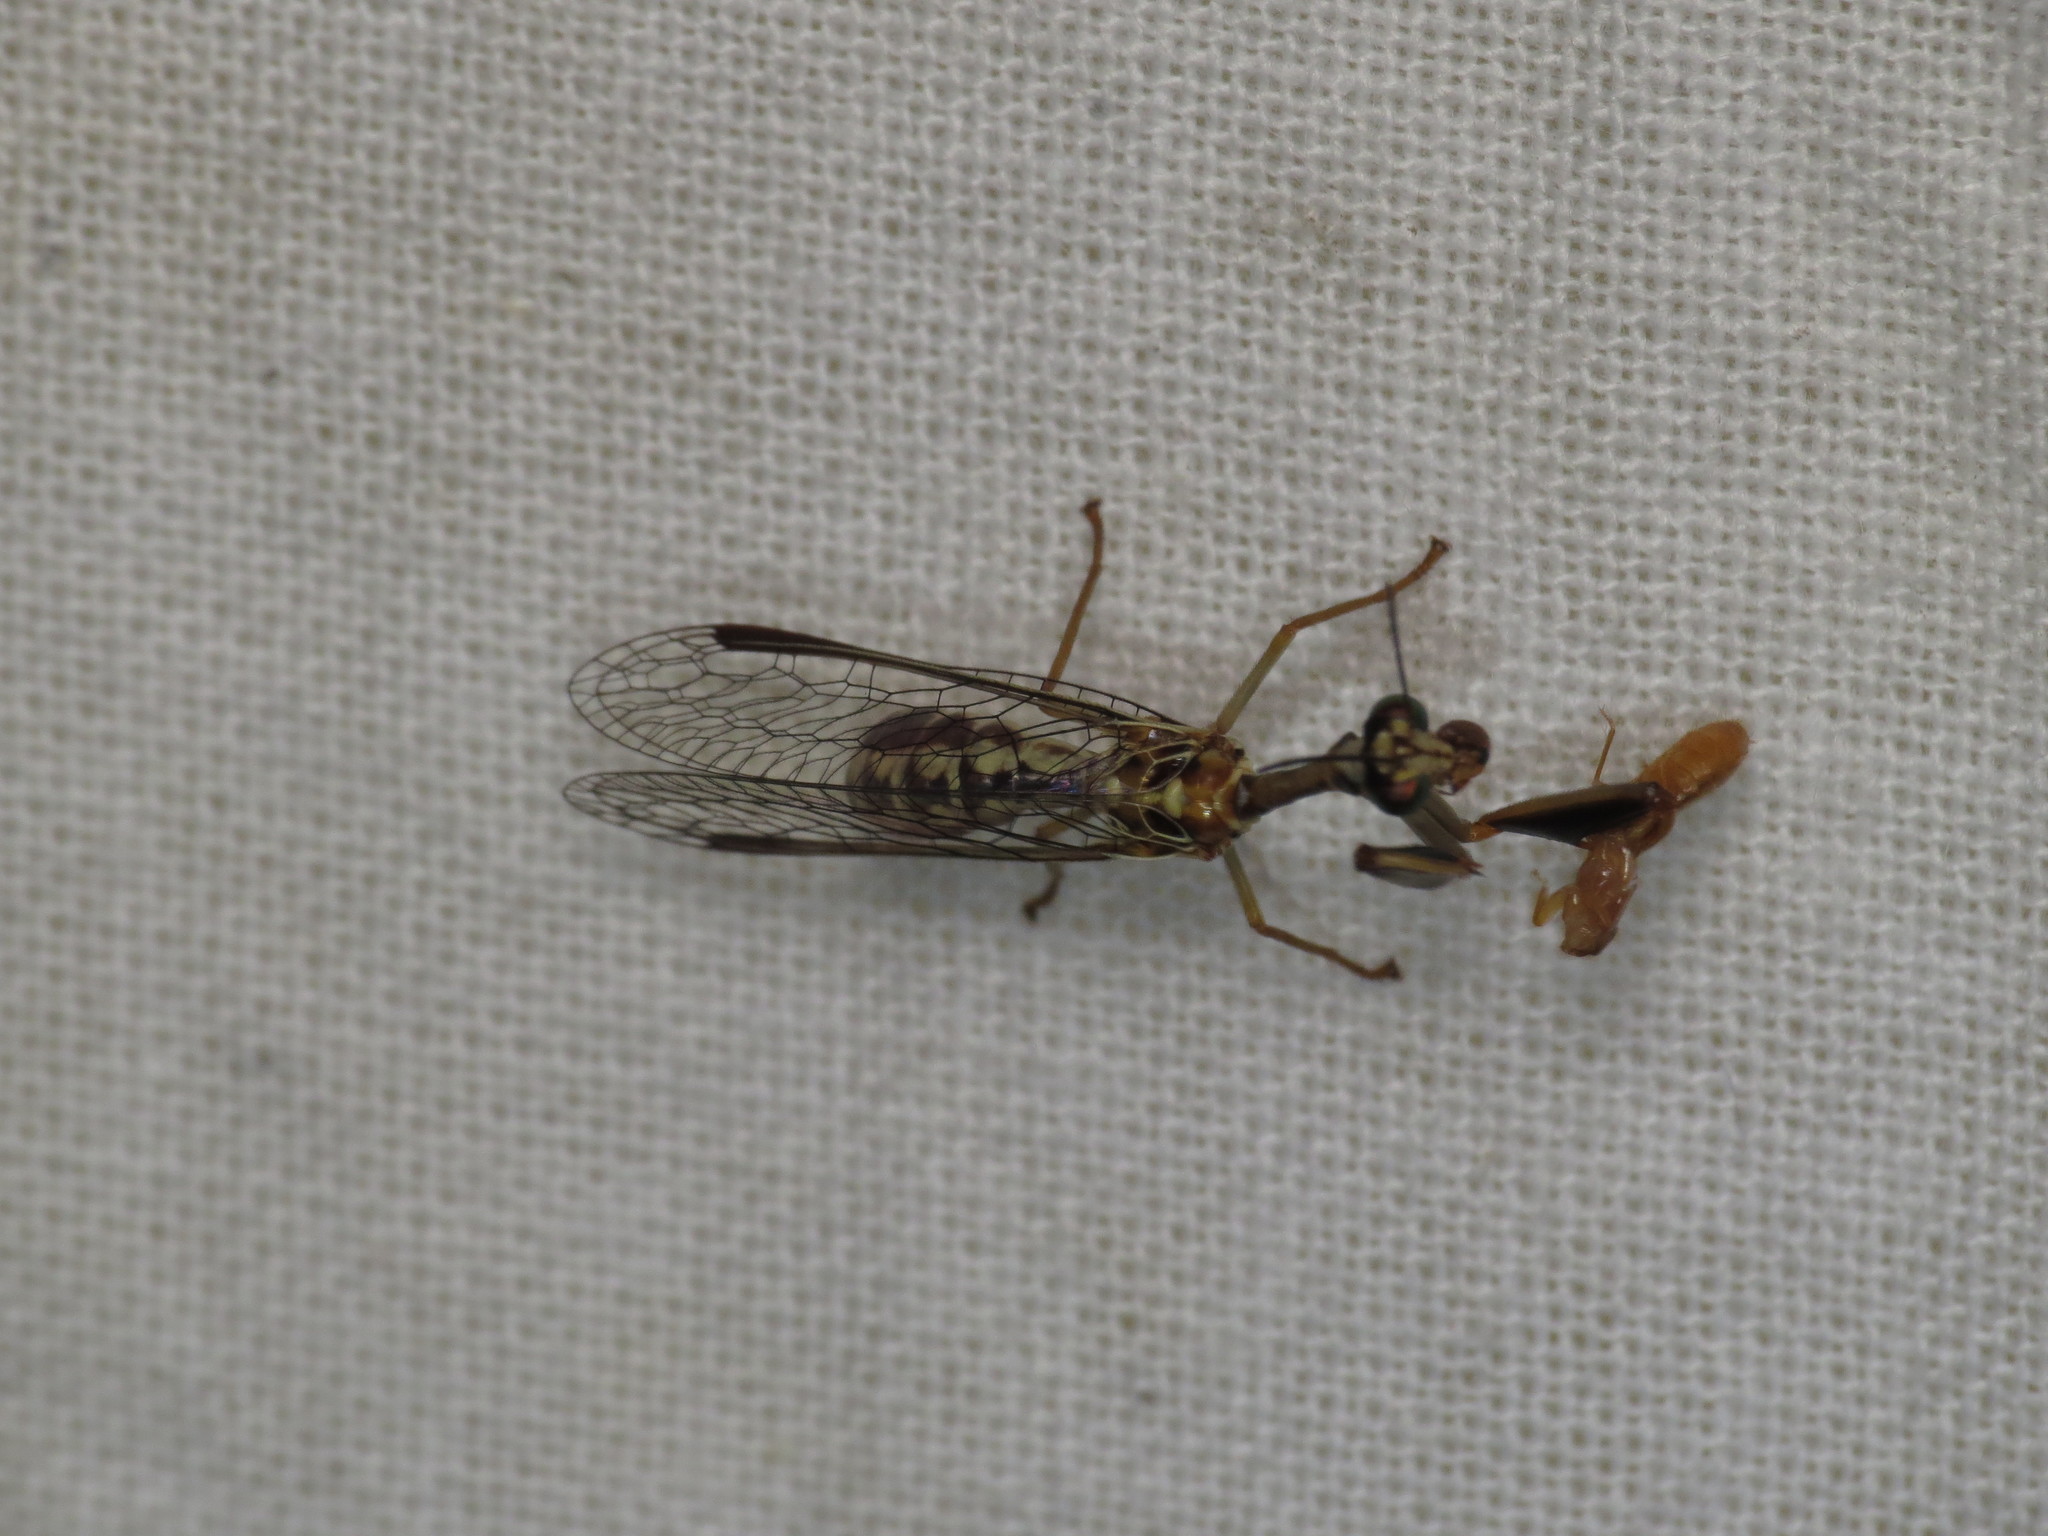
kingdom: Animalia
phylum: Arthropoda
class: Insecta
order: Neuroptera
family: Mantispidae
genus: Spaminta
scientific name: Spaminta minjerribae
